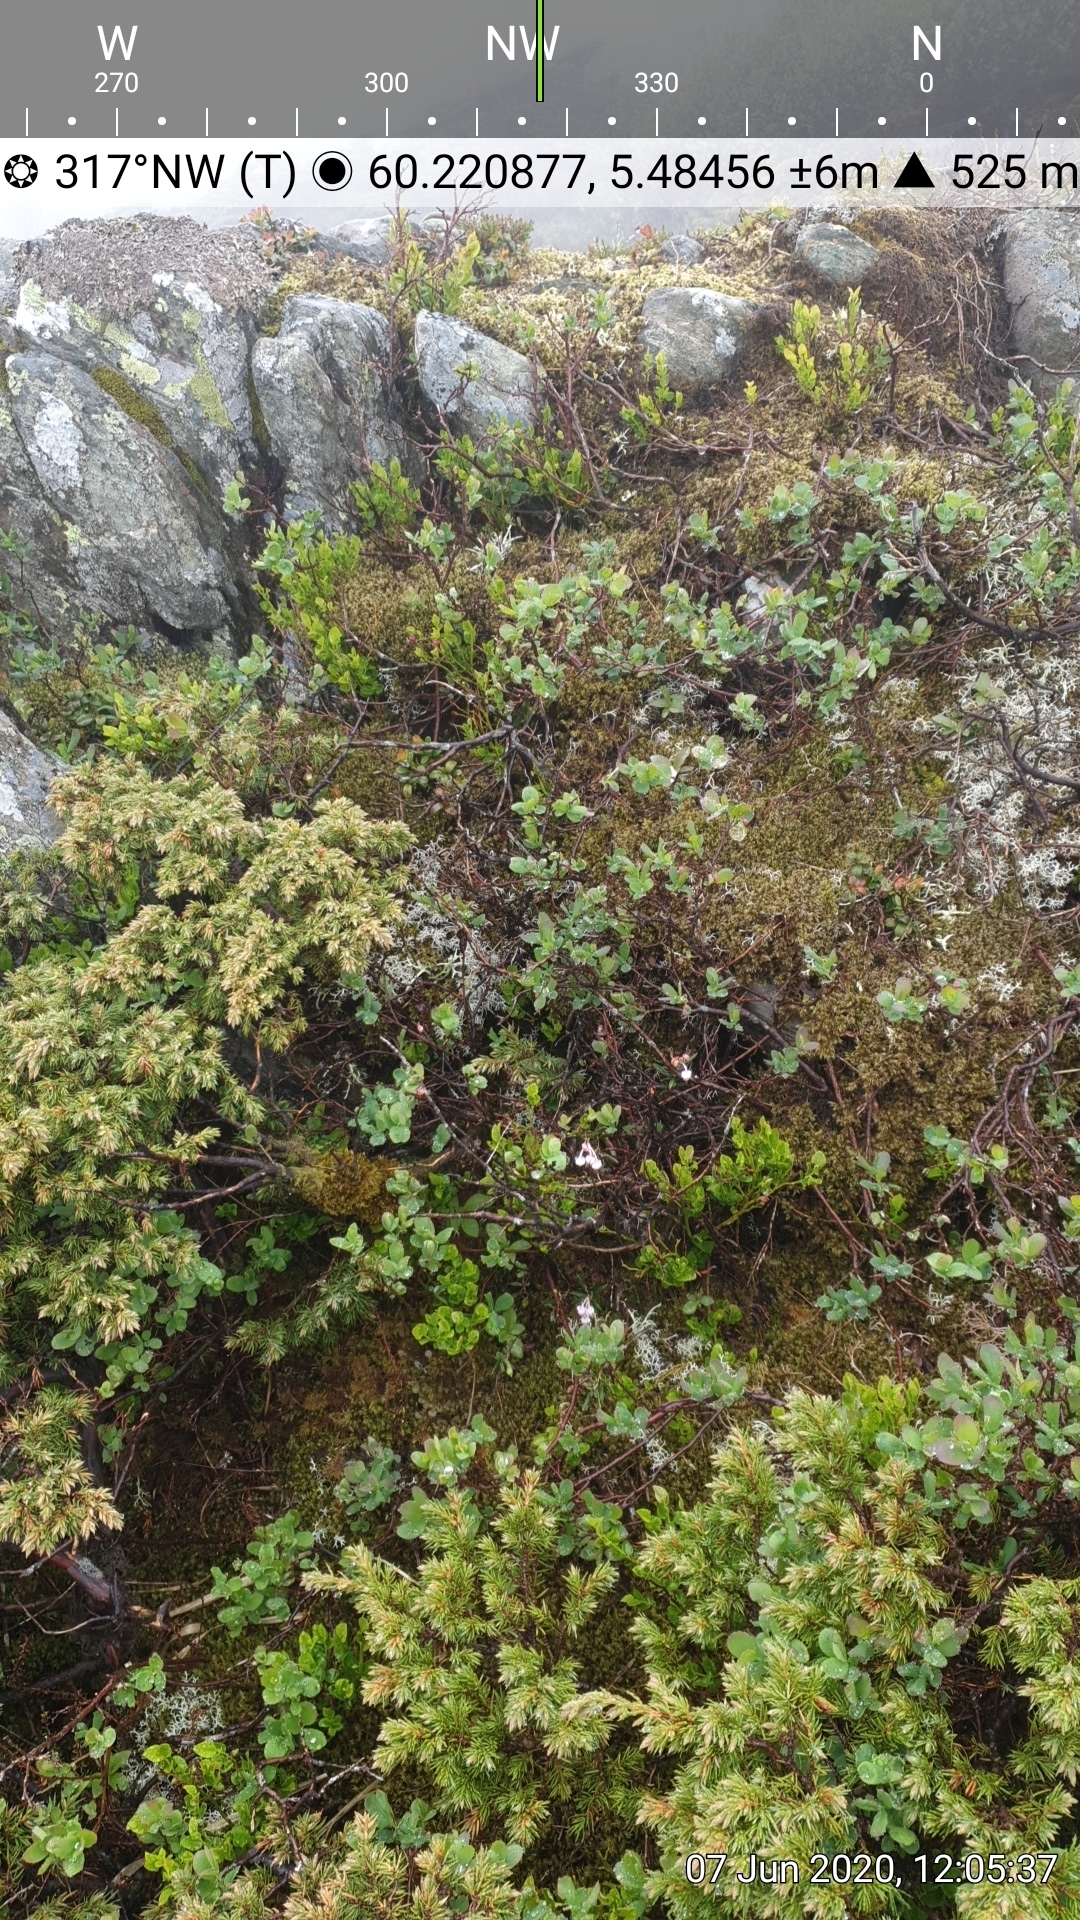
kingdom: Plantae
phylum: Tracheophyta
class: Magnoliopsida
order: Ericales
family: Ericaceae
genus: Andromeda
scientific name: Andromeda polifolia
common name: Bog-rosemary
